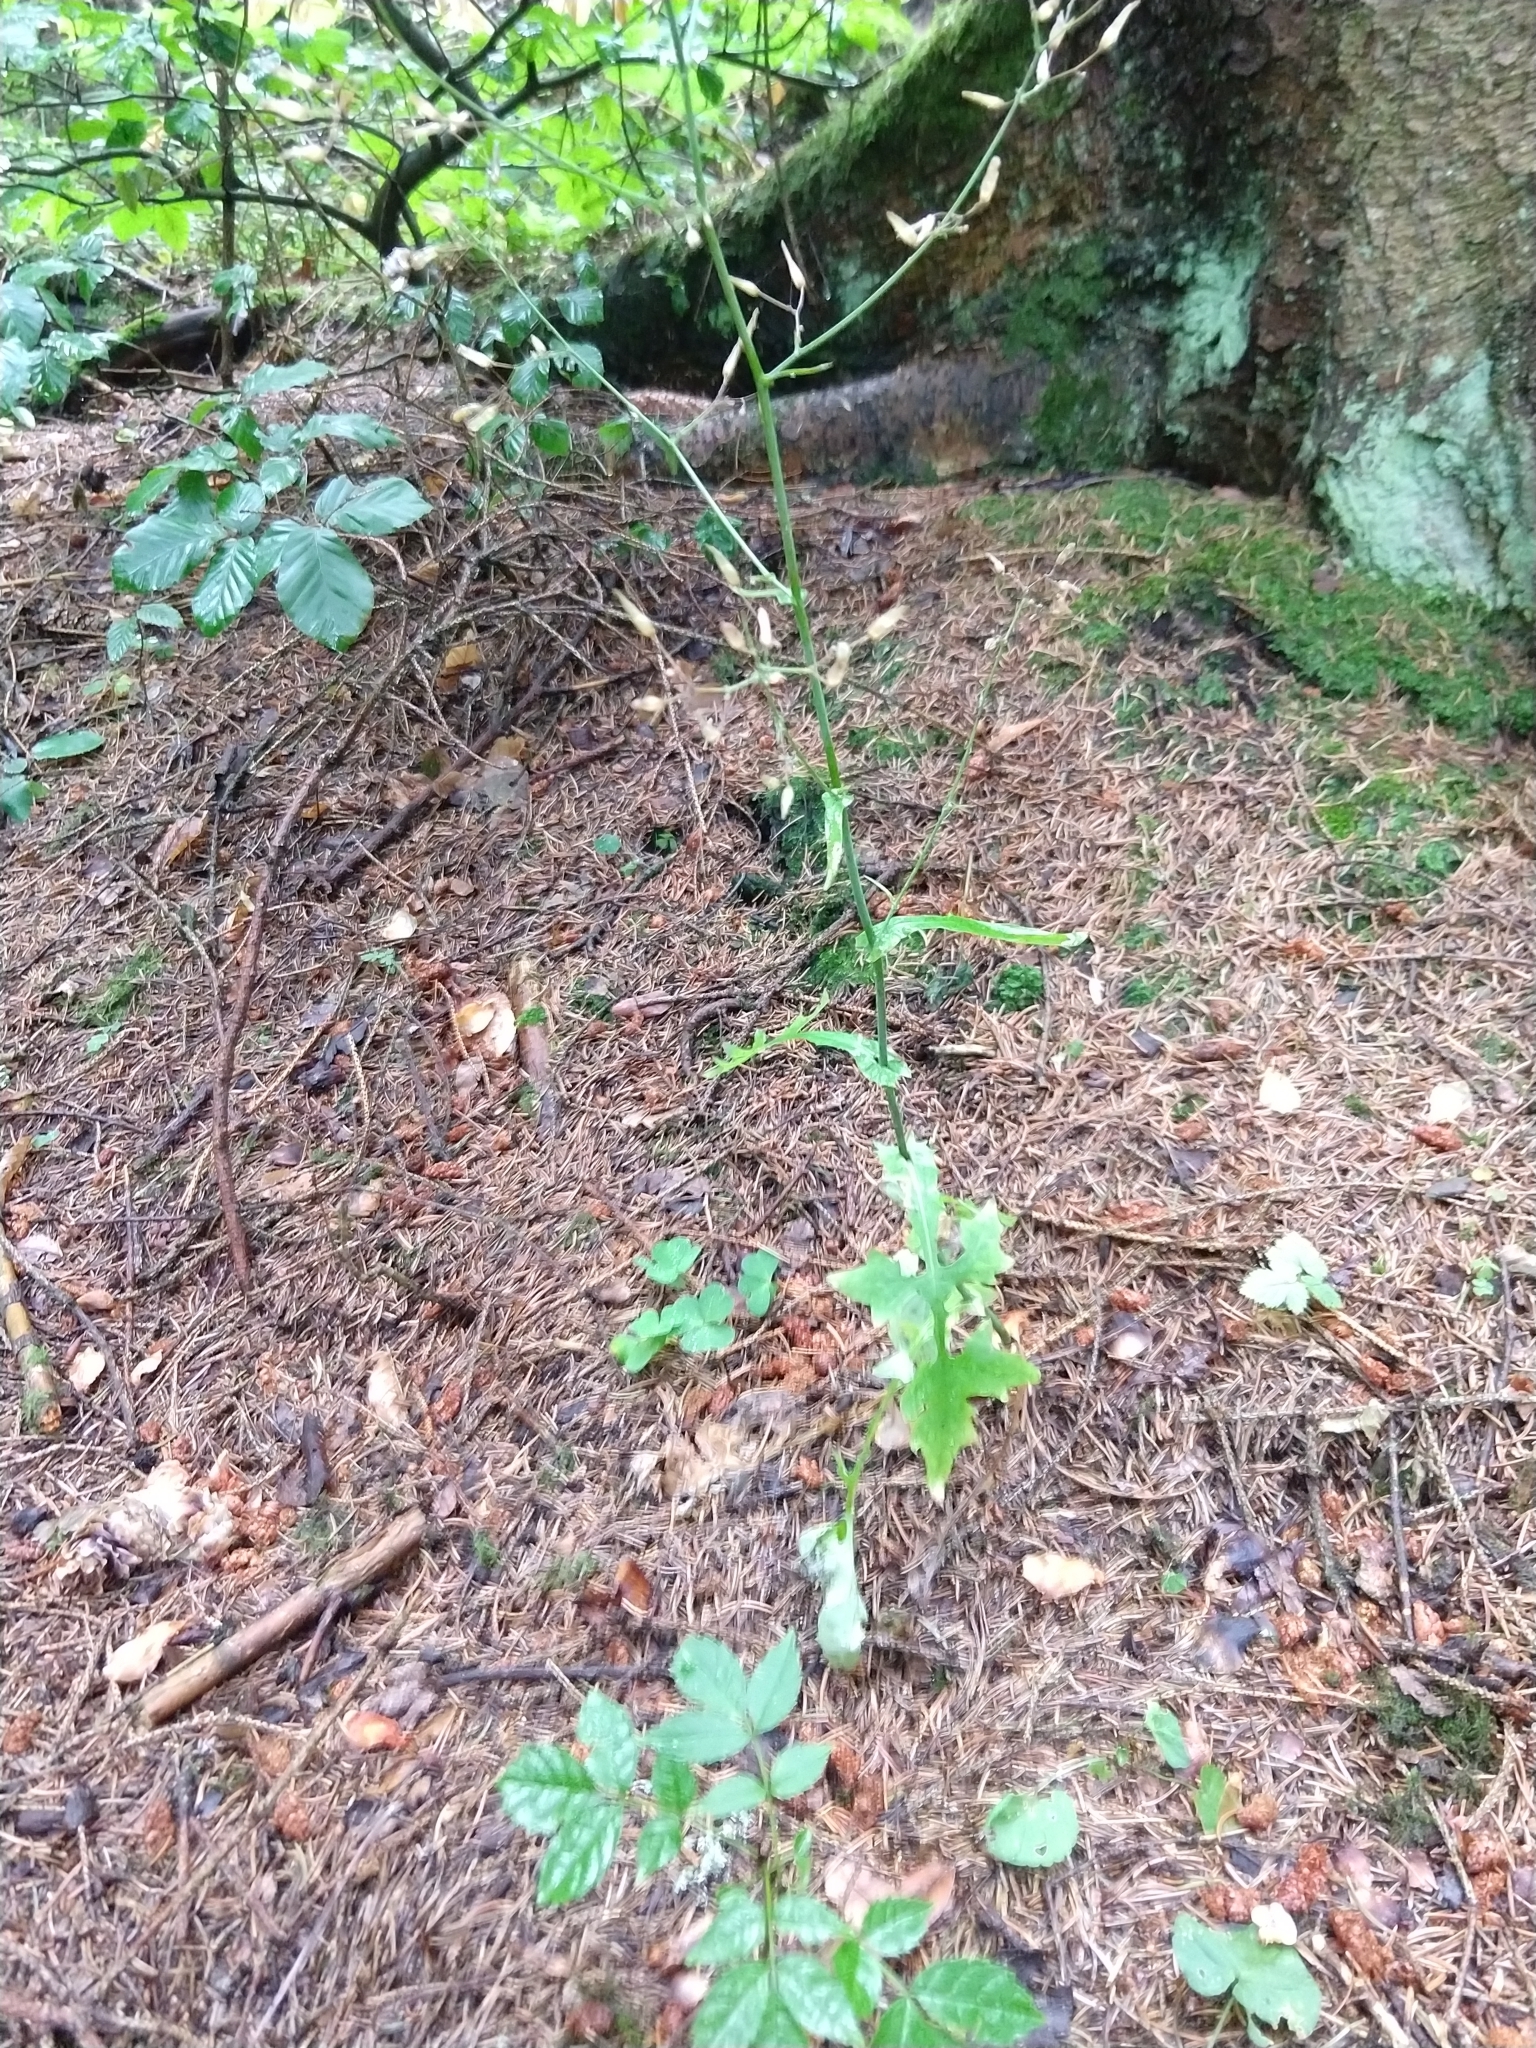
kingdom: Plantae
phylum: Tracheophyta
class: Magnoliopsida
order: Asterales
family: Asteraceae
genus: Mycelis
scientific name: Mycelis muralis
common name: Wall lettuce
